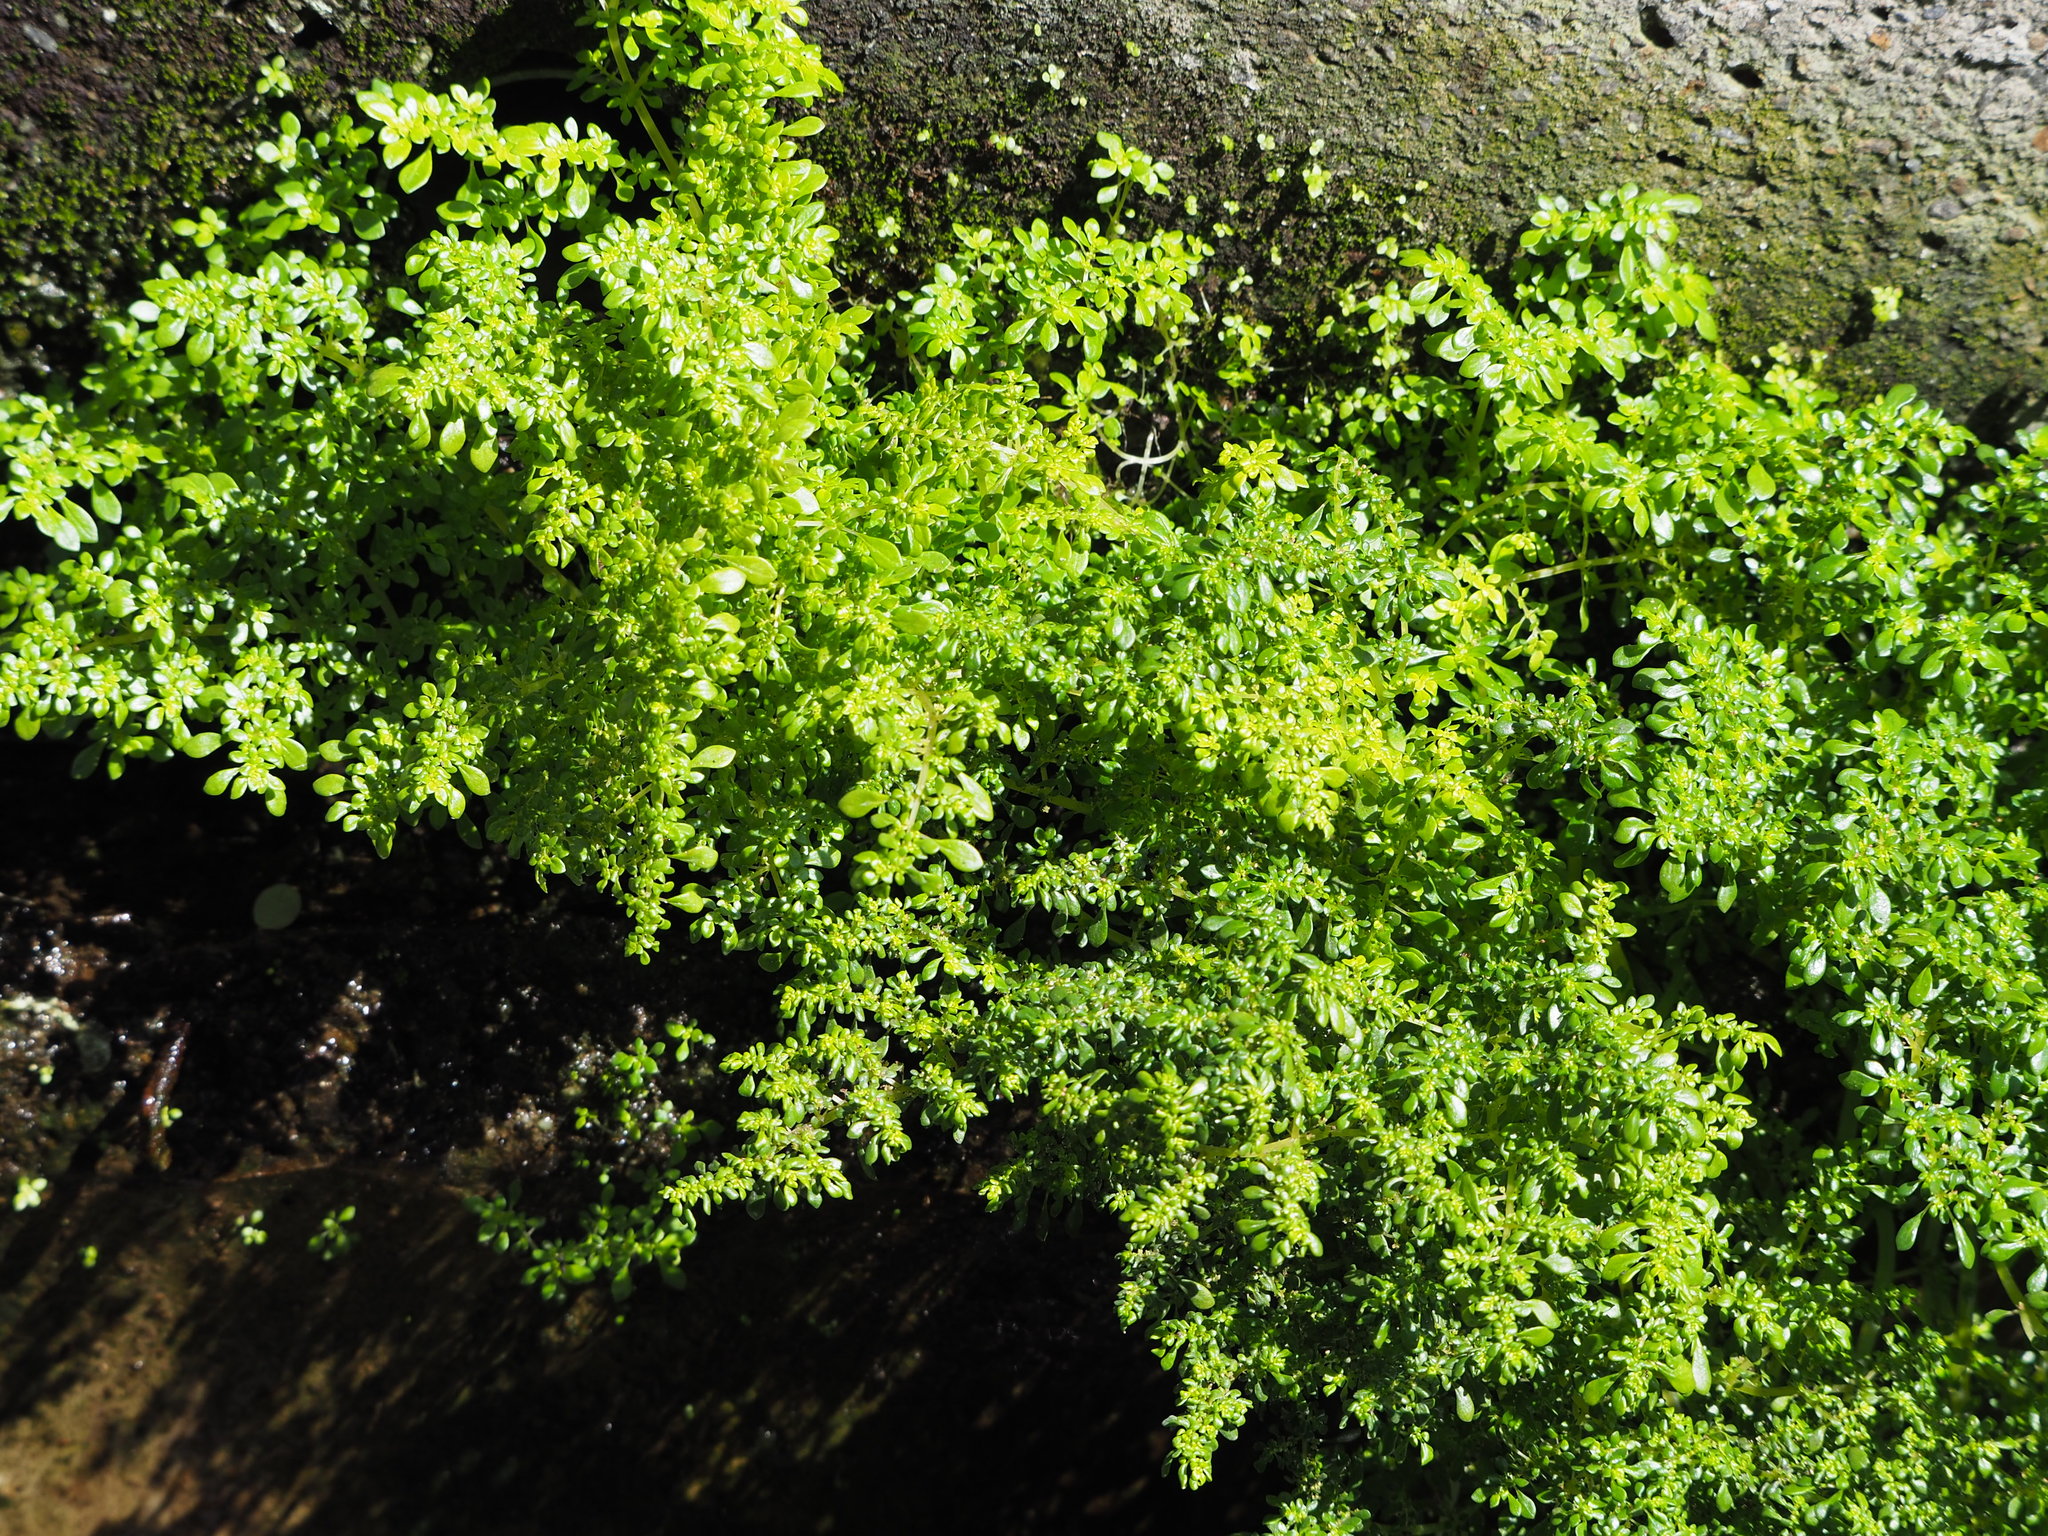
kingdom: Plantae
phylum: Tracheophyta
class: Magnoliopsida
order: Rosales
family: Urticaceae
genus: Pilea
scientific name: Pilea microphylla
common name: Artillery-plant
